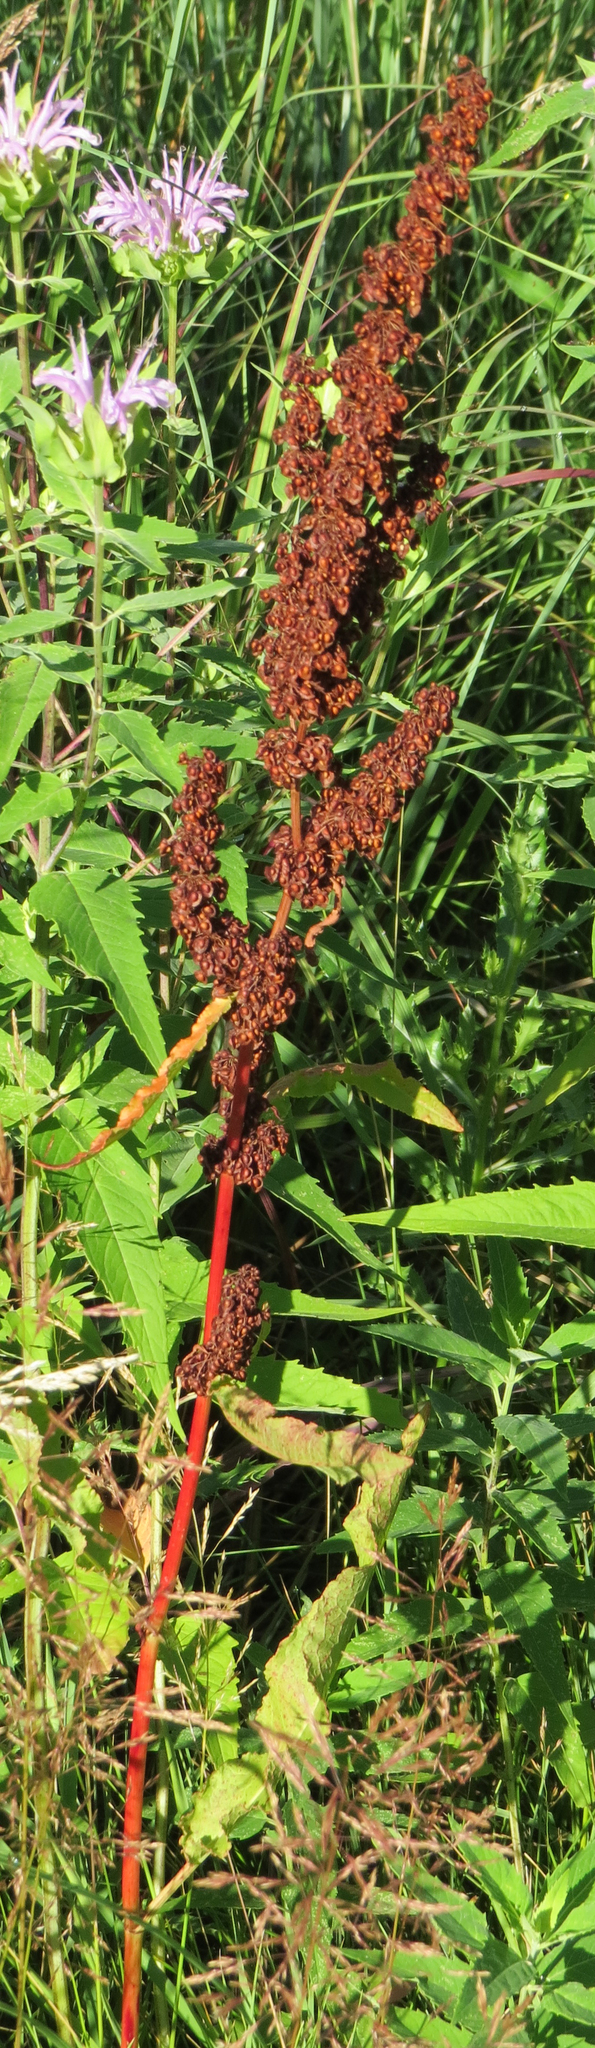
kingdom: Plantae
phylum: Tracheophyta
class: Magnoliopsida
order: Caryophyllales
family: Polygonaceae
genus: Rumex
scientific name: Rumex crispus
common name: Curled dock
